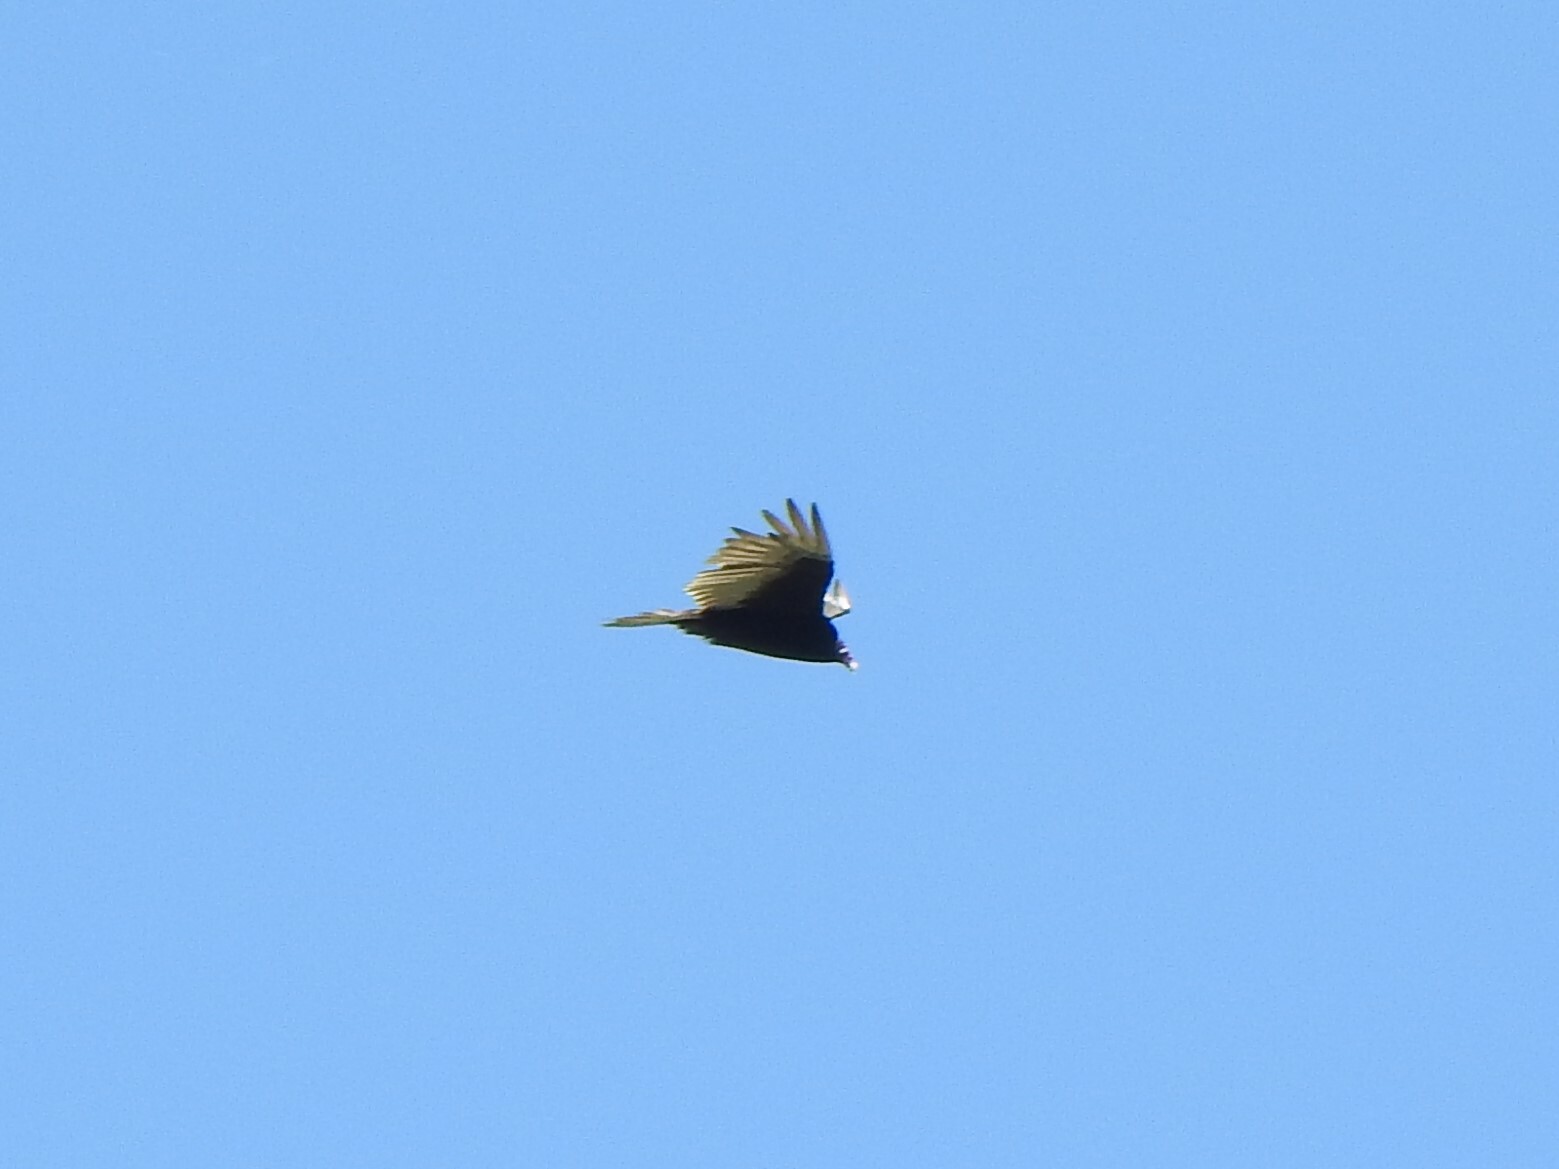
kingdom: Animalia
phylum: Chordata
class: Aves
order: Accipitriformes
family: Cathartidae
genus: Cathartes
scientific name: Cathartes aura
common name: Turkey vulture
